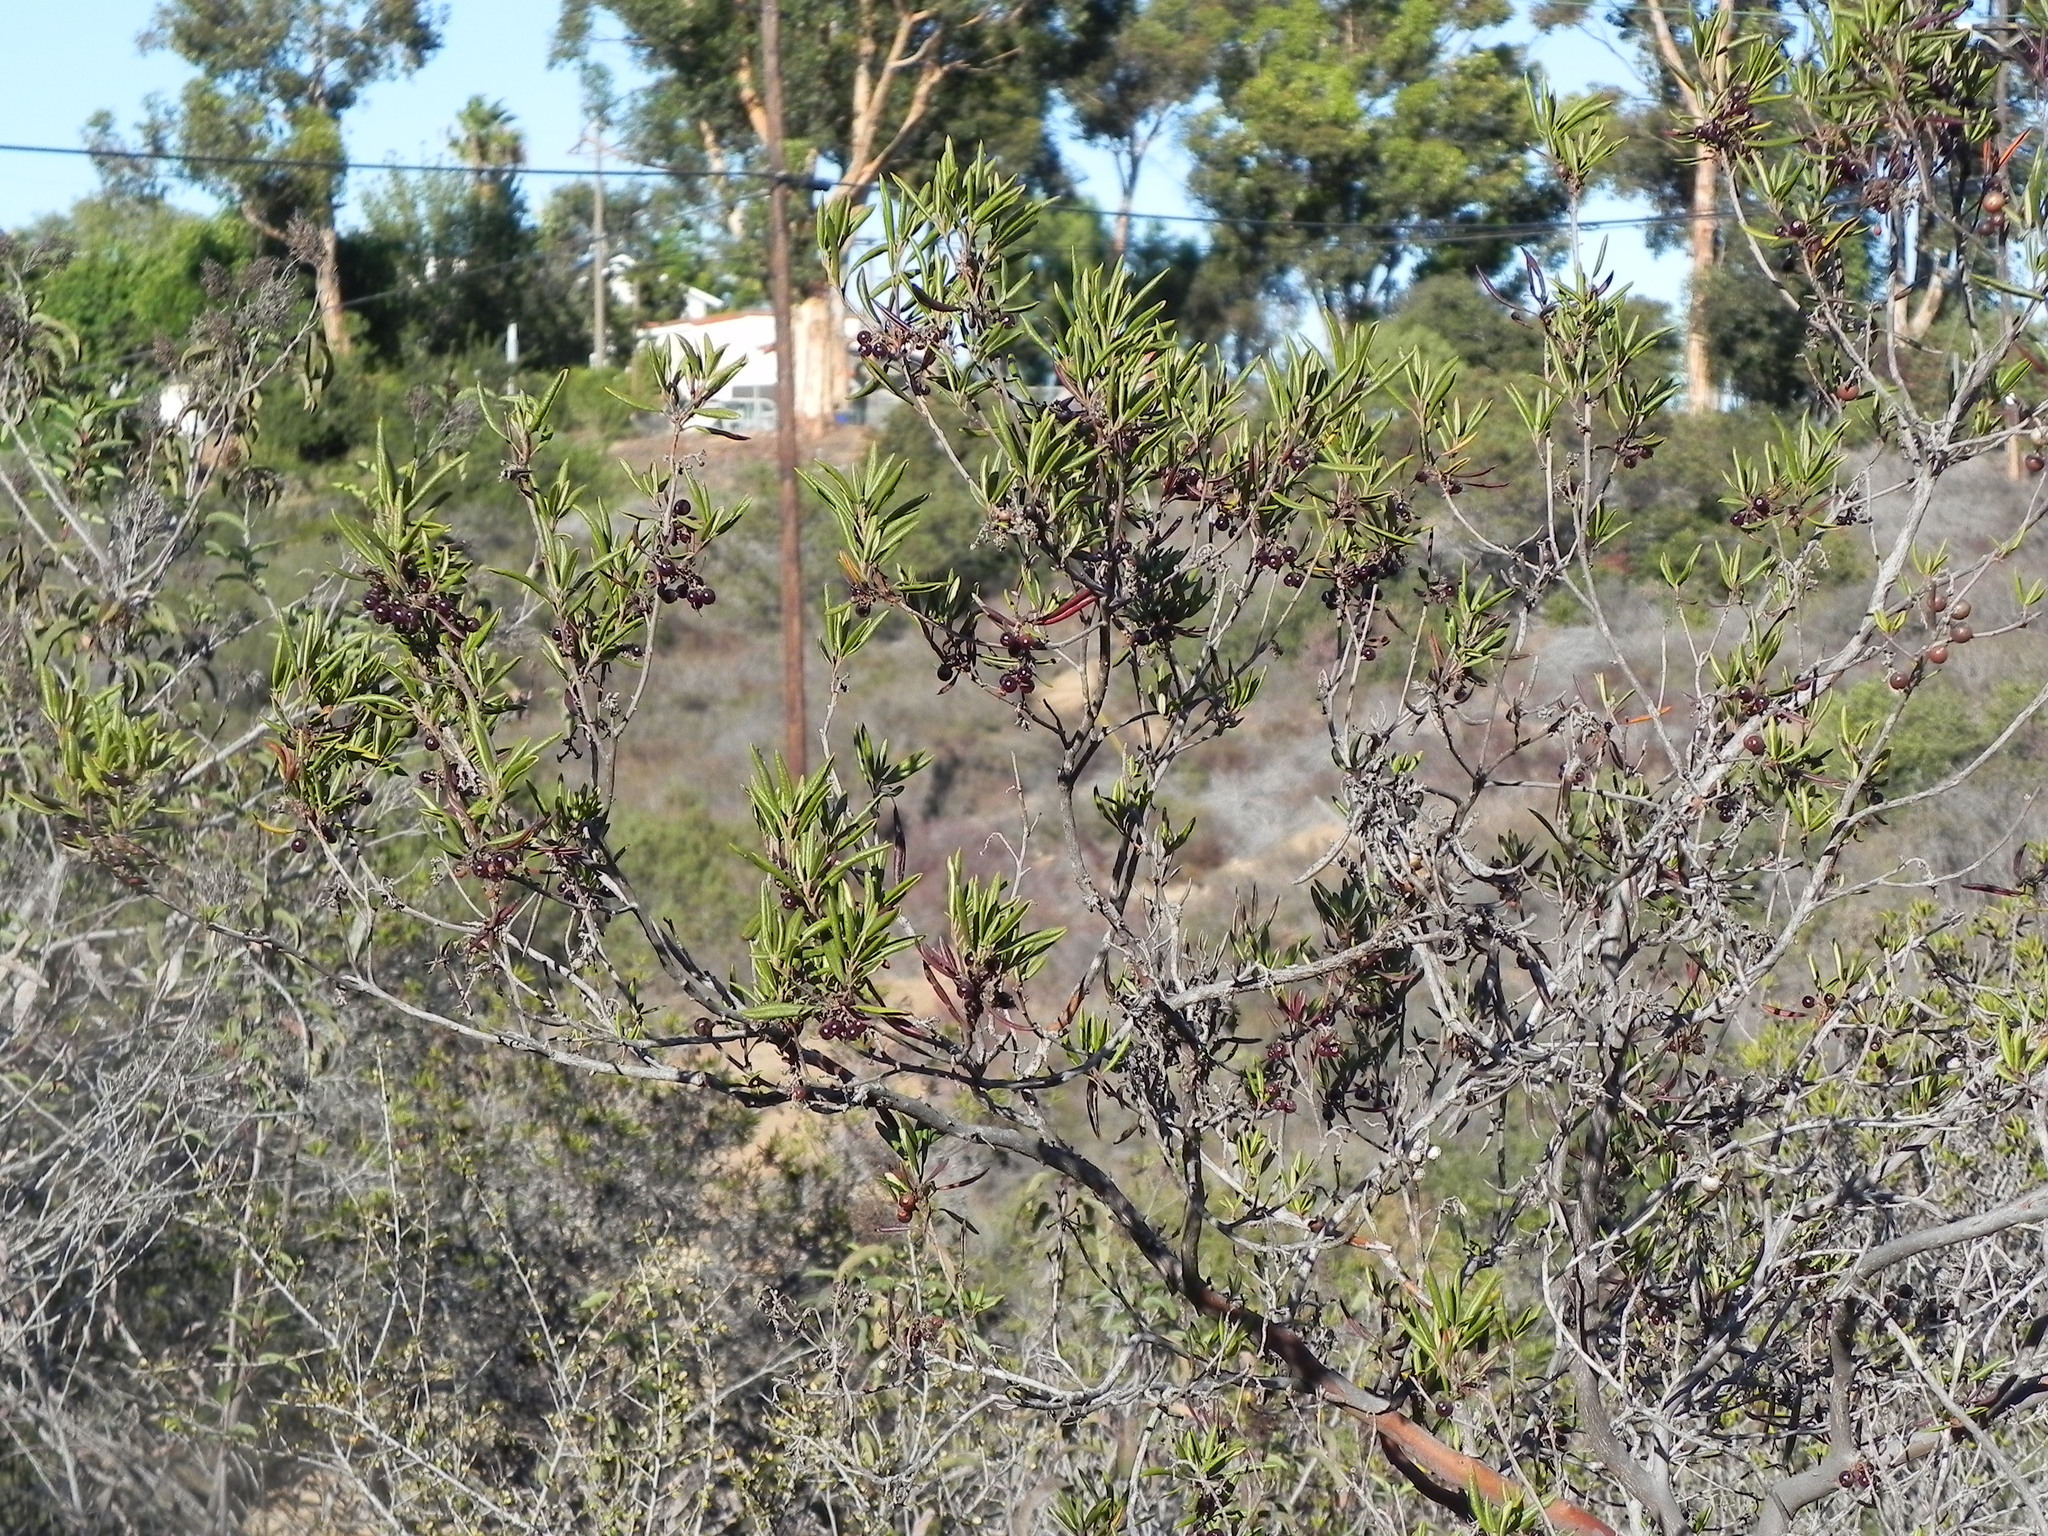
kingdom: Plantae
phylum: Tracheophyta
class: Magnoliopsida
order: Ericales
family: Ericaceae
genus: Arctostaphylos
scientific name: Arctostaphylos bicolor
